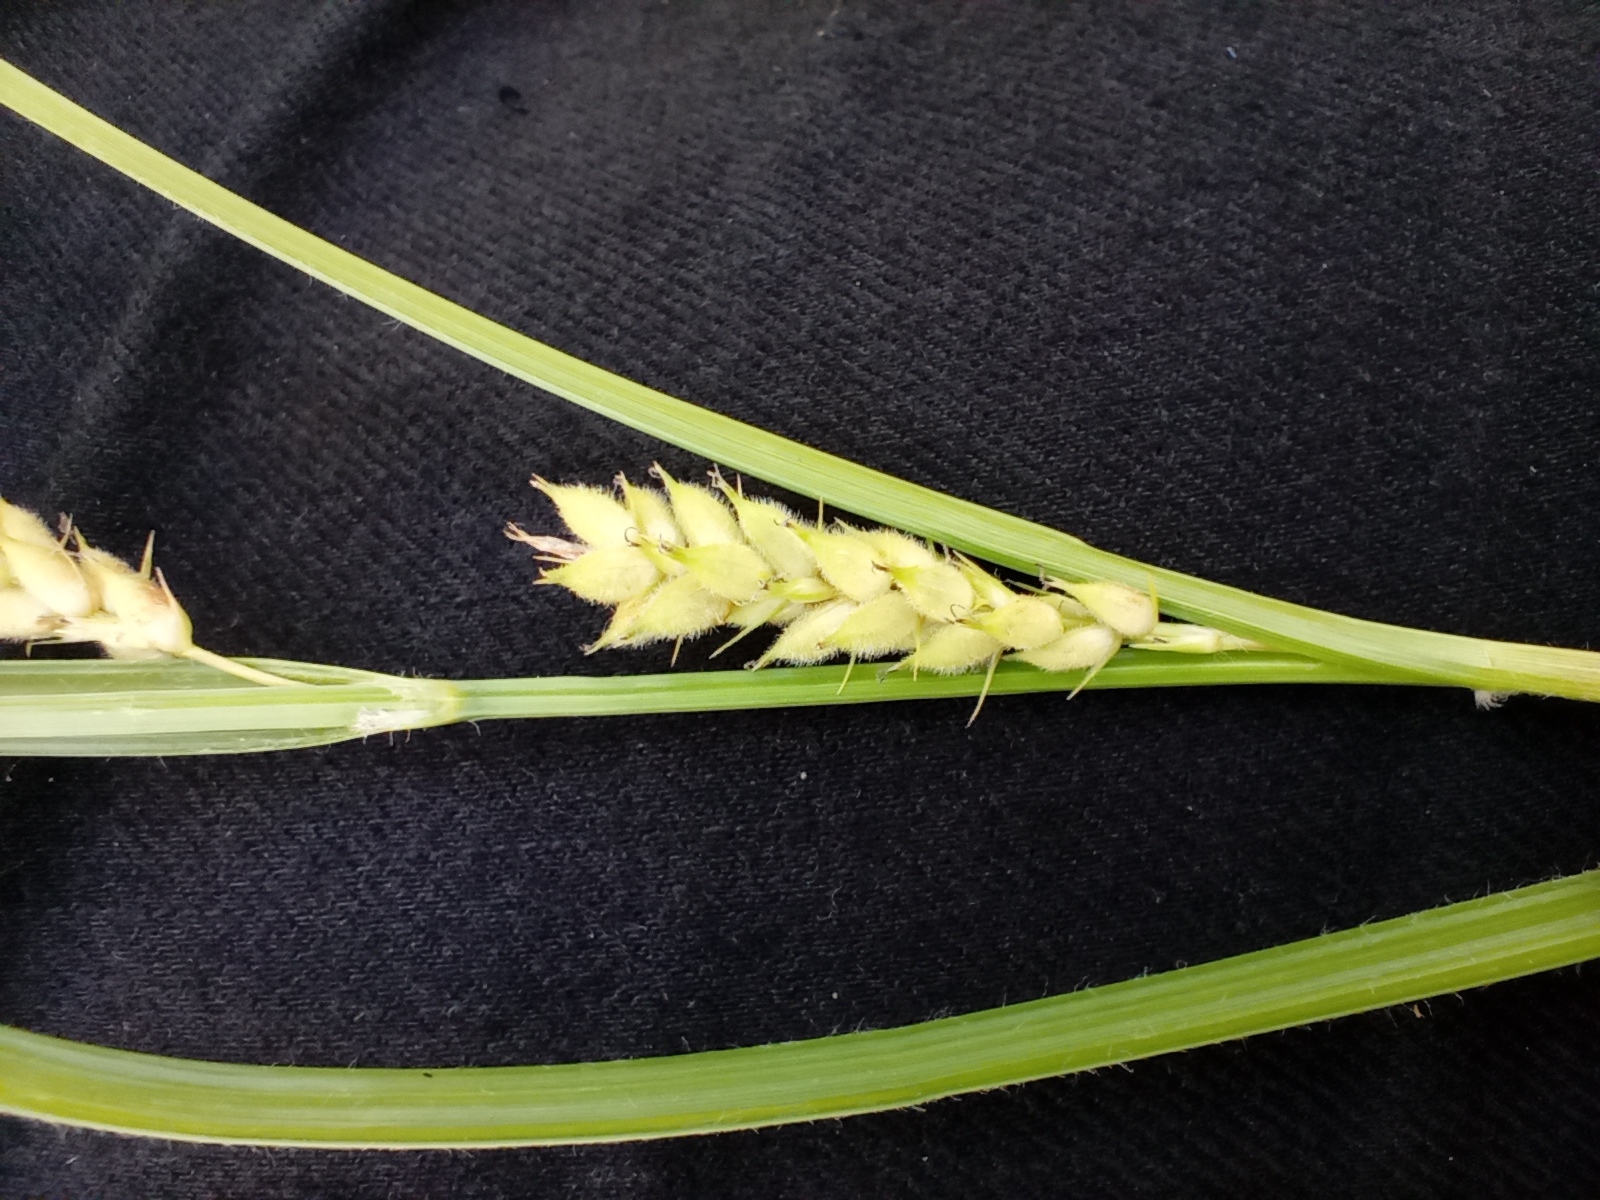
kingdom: Plantae
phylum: Tracheophyta
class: Liliopsida
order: Poales
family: Cyperaceae
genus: Carex
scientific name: Carex hirta
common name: Hairy sedge
